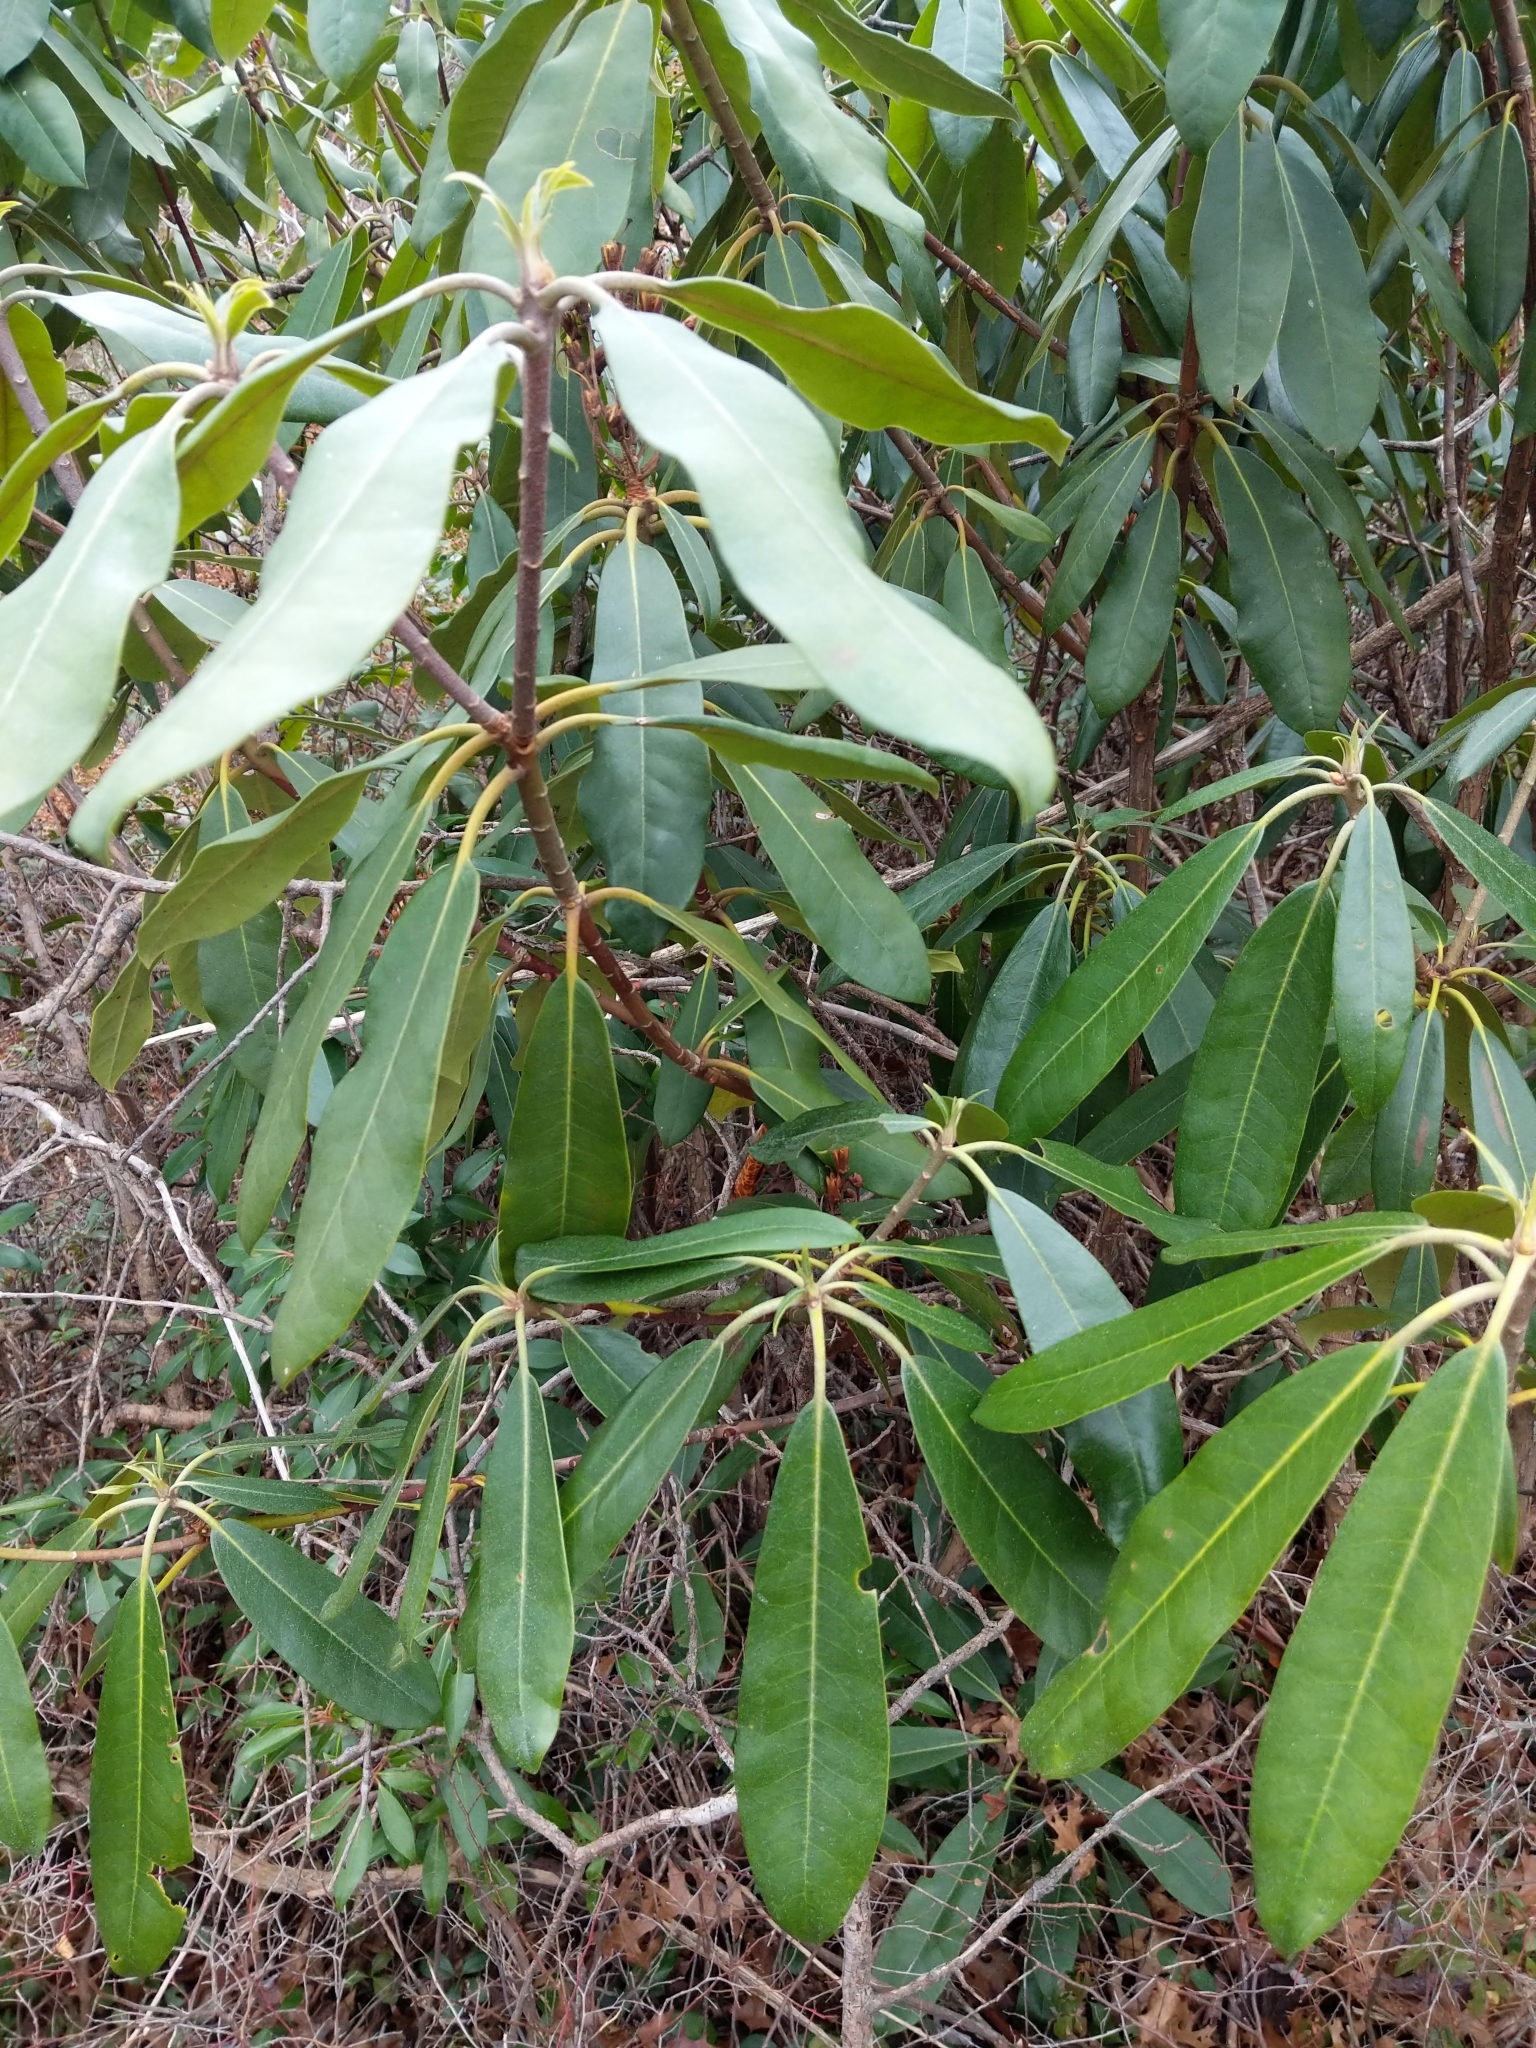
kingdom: Plantae
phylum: Tracheophyta
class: Magnoliopsida
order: Ericales
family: Ericaceae
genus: Rhododendron
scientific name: Rhododendron maximum
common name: Great rhododendron
